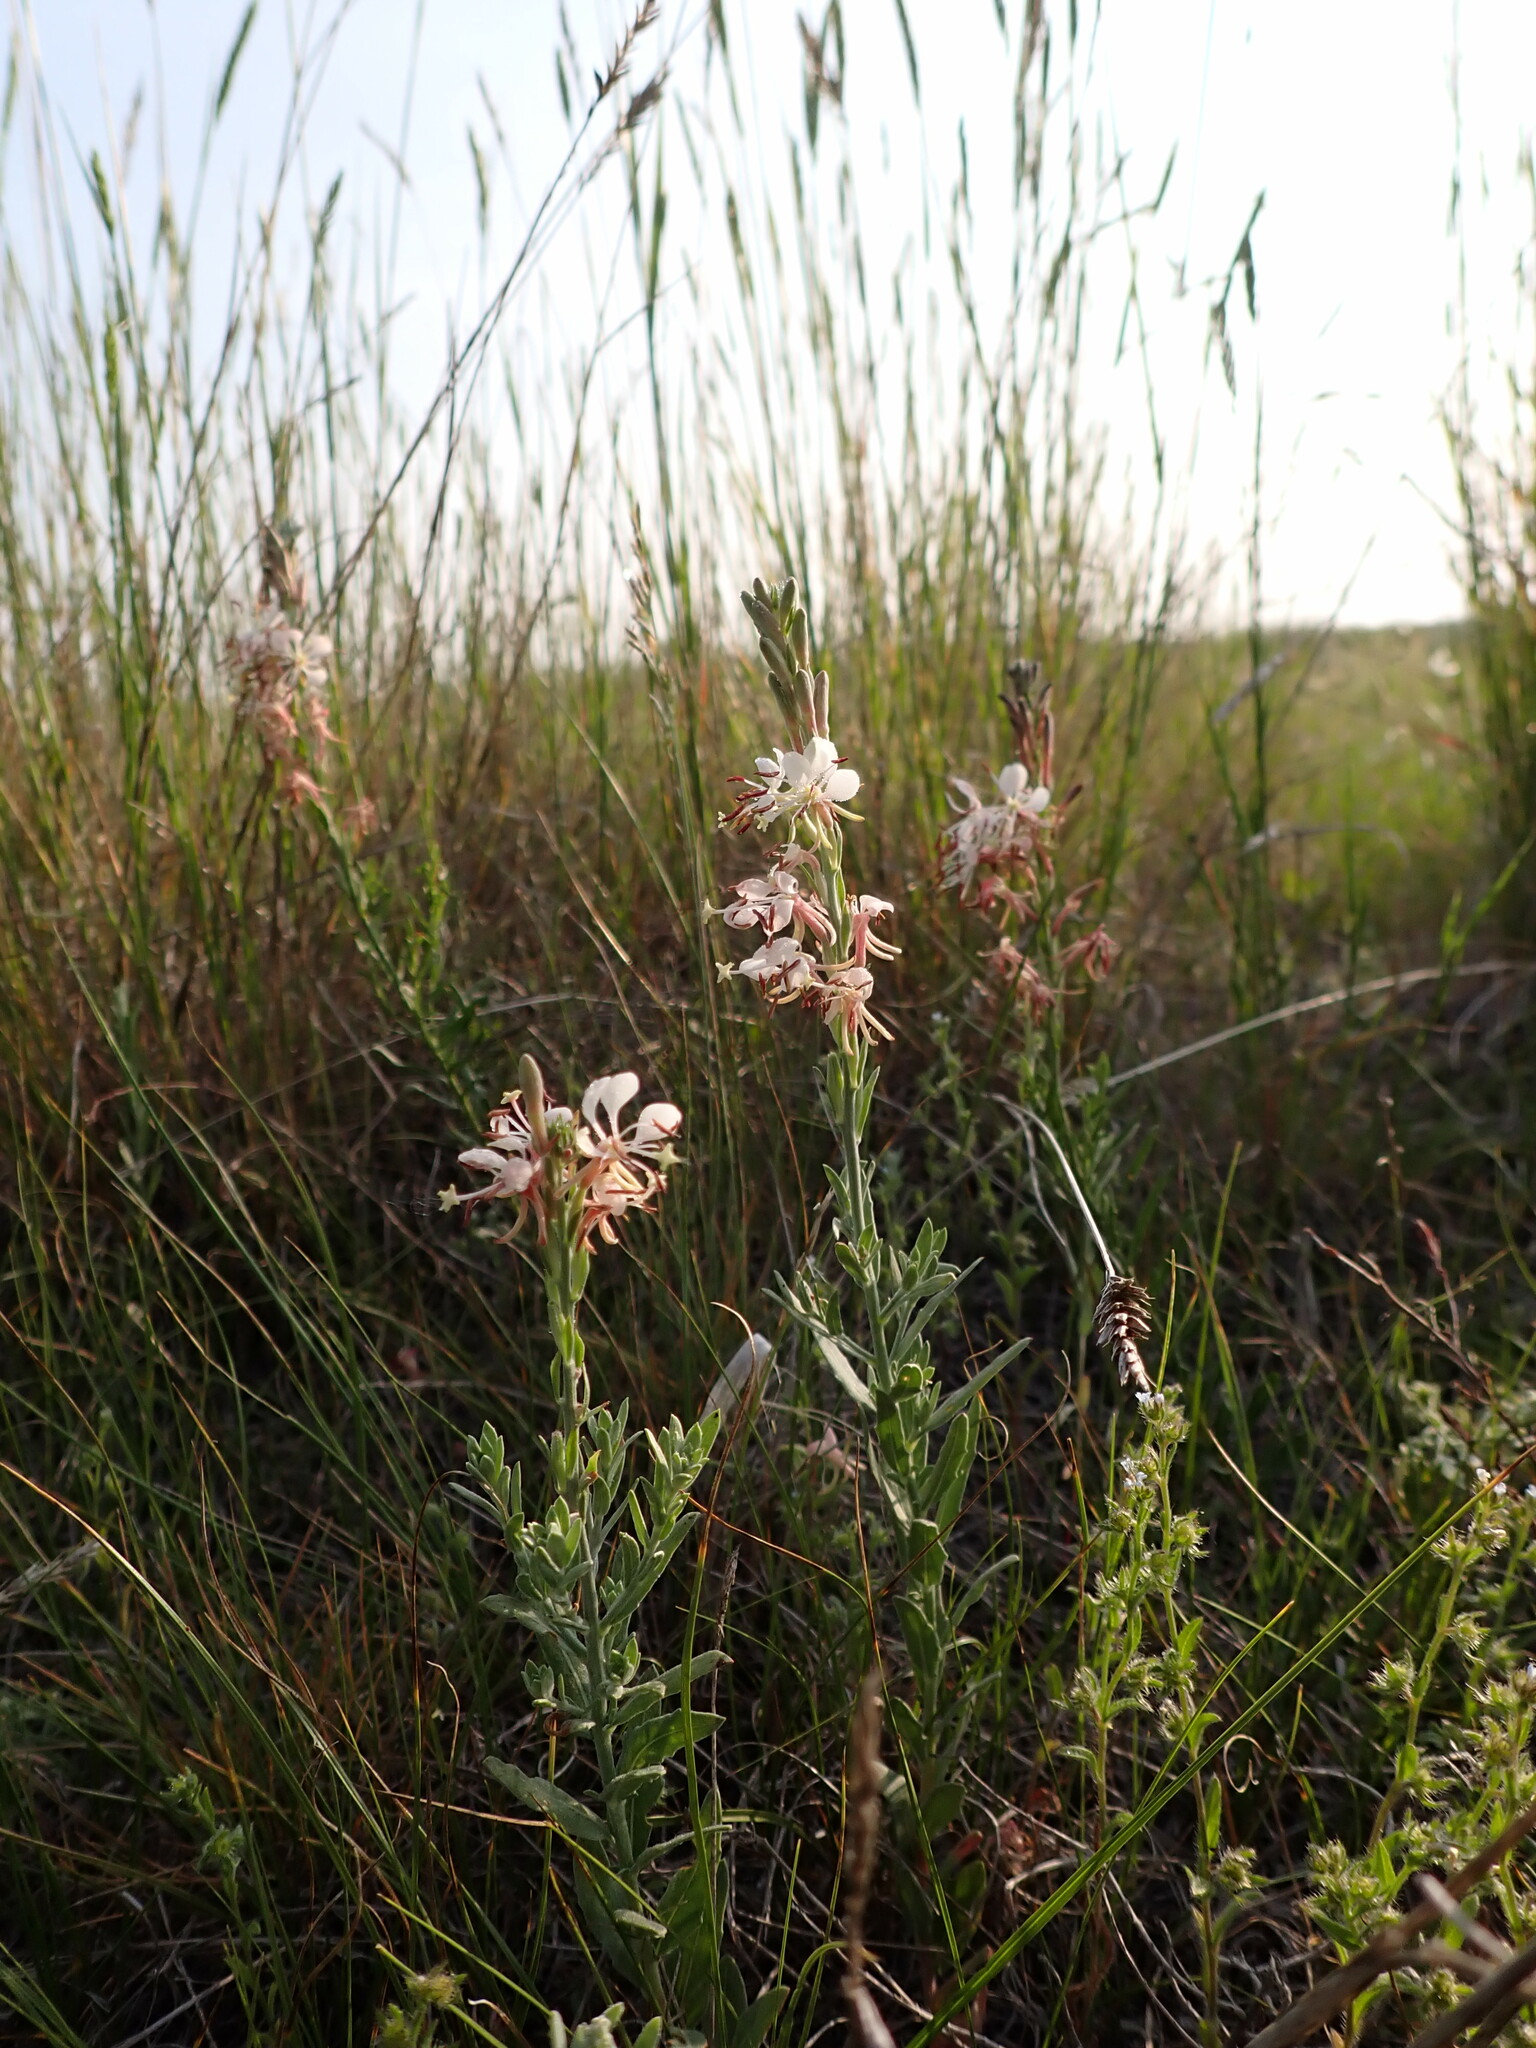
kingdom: Plantae
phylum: Tracheophyta
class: Magnoliopsida
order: Myrtales
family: Onagraceae
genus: Oenothera
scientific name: Oenothera suffrutescens
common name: Scarlet beeblossom
